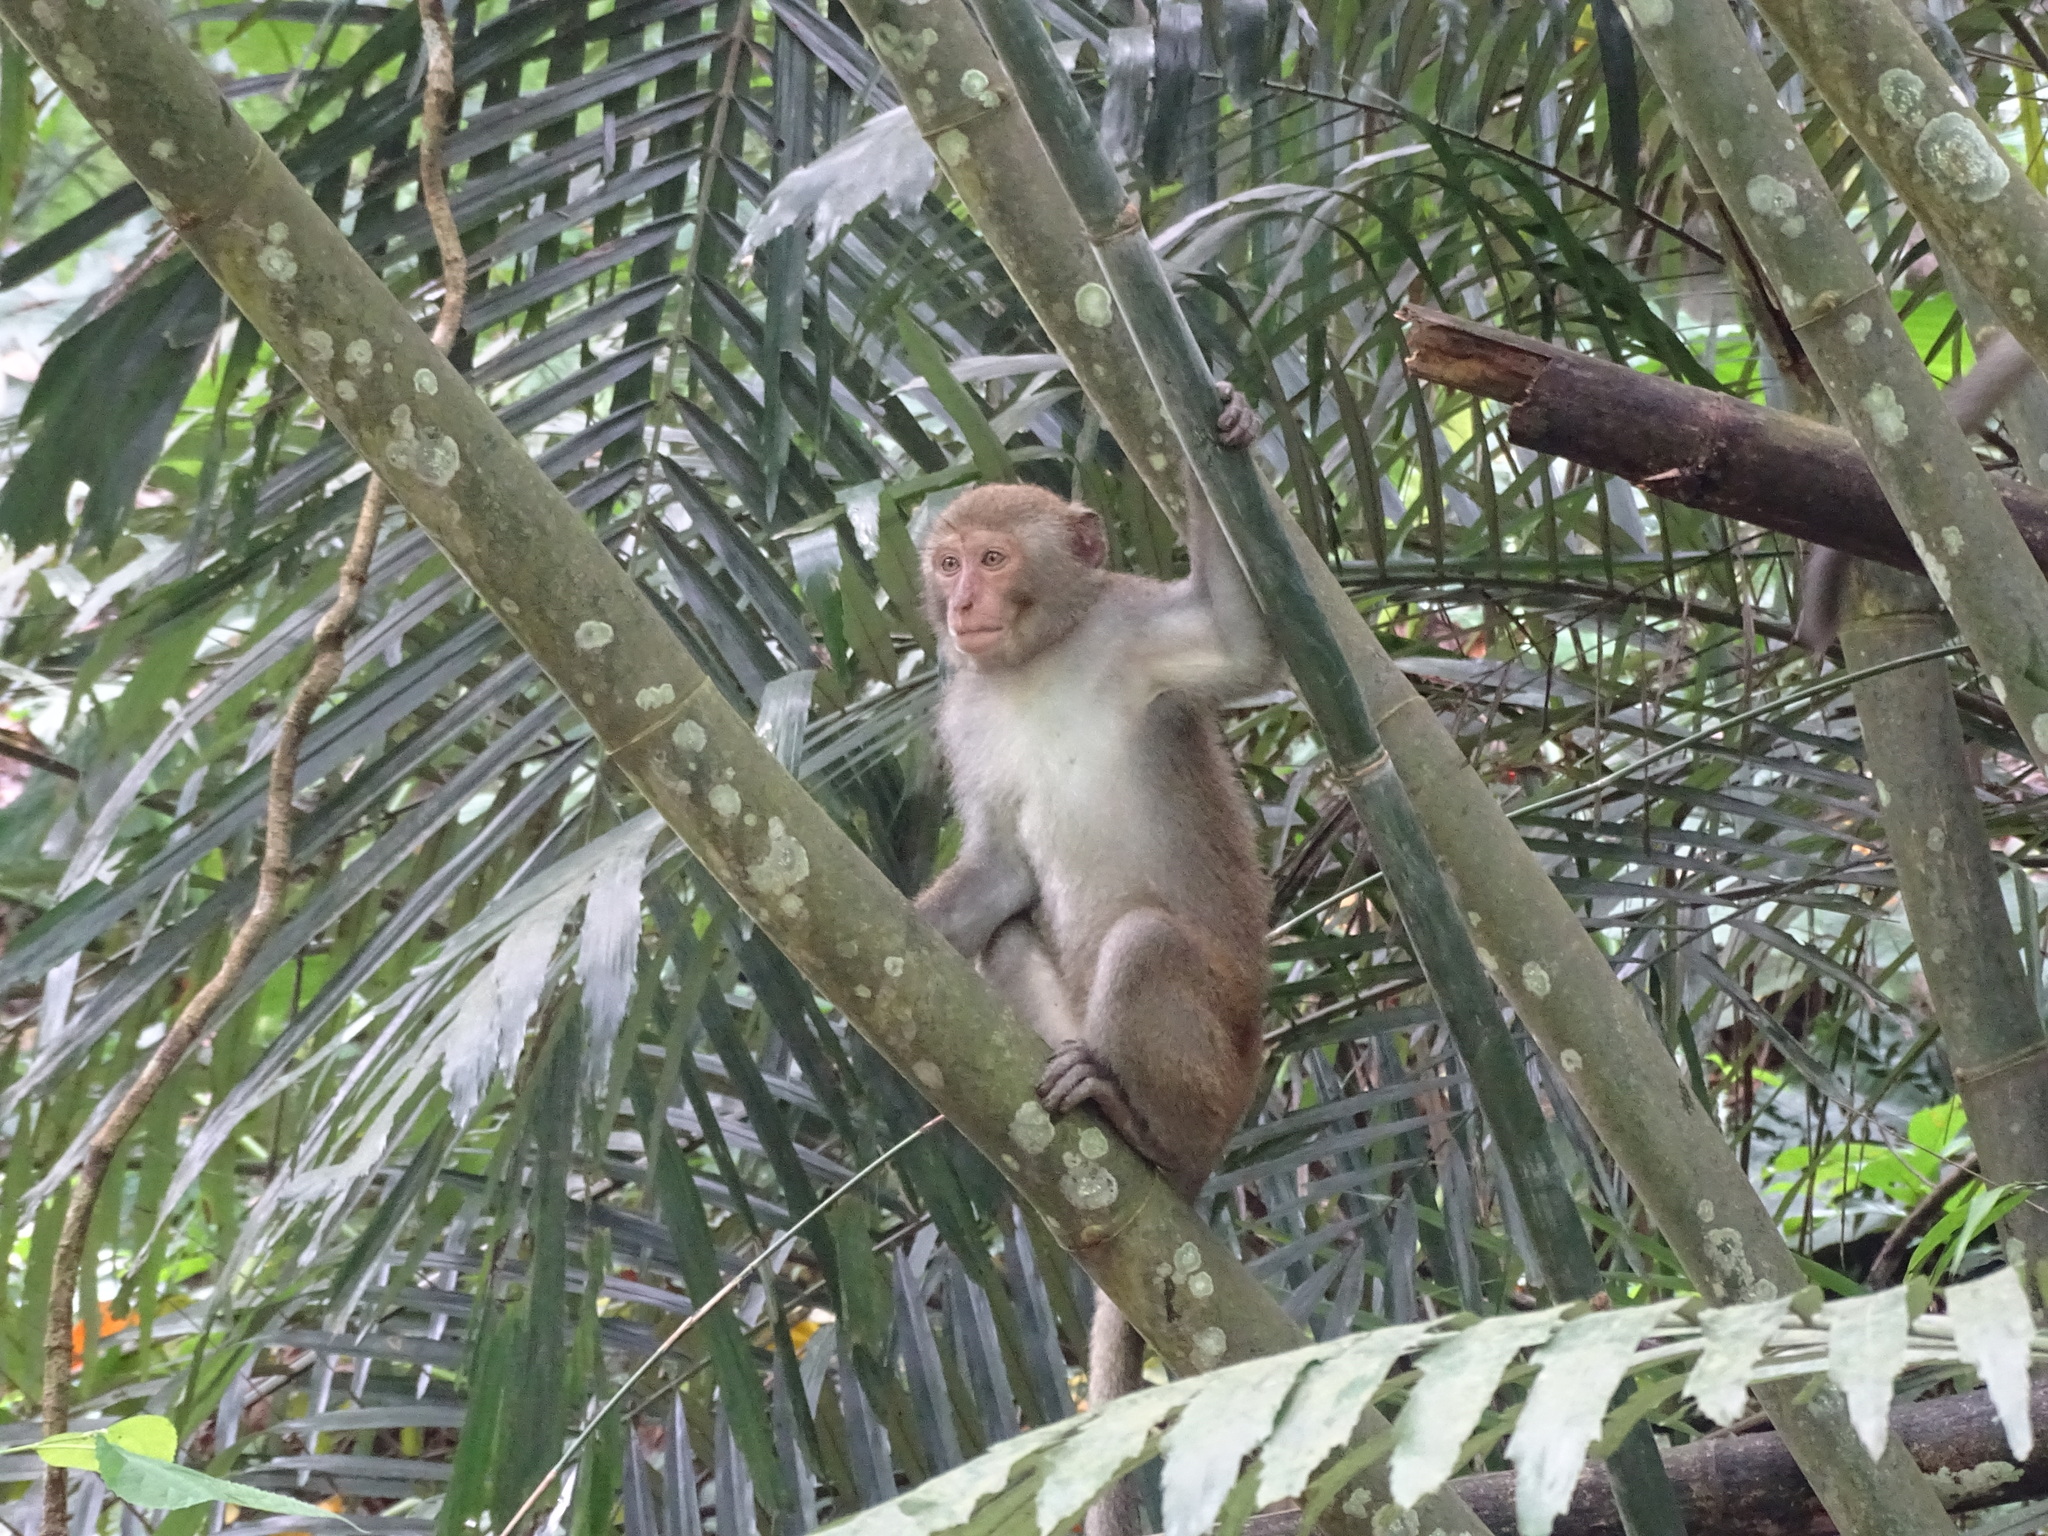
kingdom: Animalia
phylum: Chordata
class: Mammalia
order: Primates
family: Cercopithecidae
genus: Macaca
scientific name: Macaca cyclopis
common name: Formosan rock macaque
